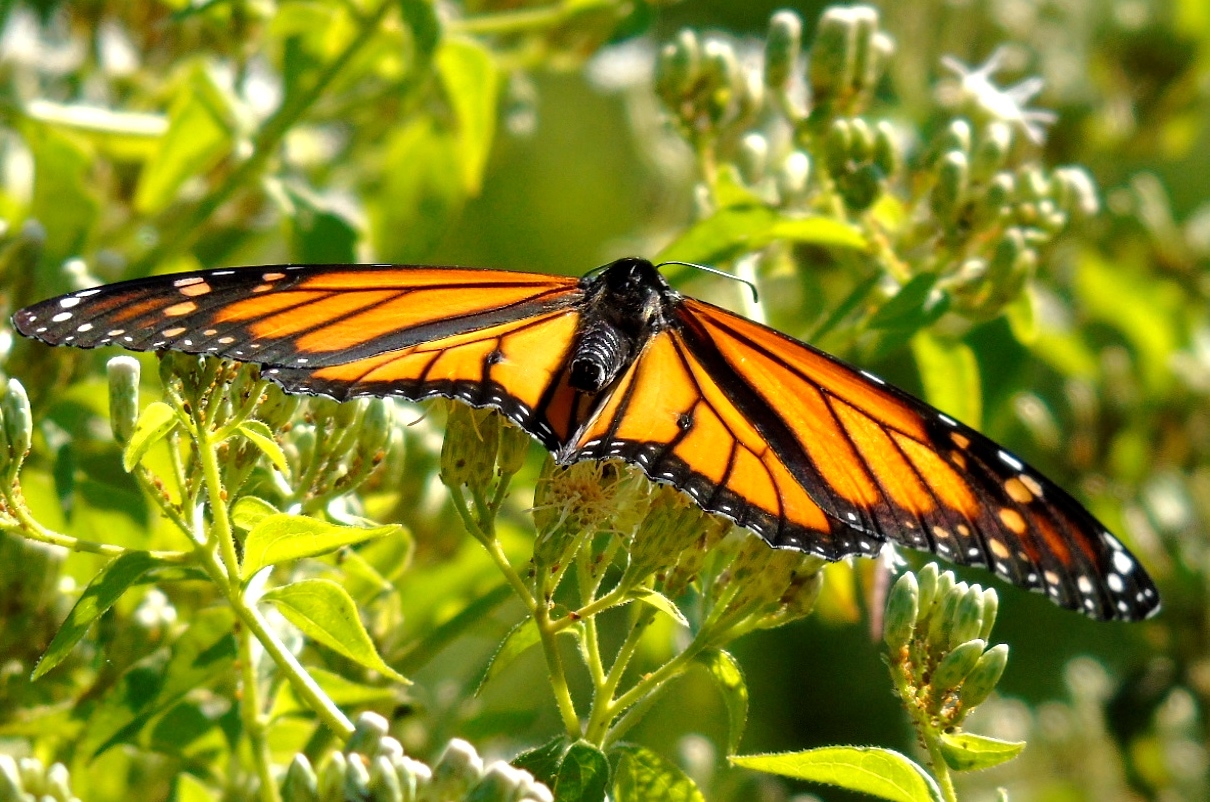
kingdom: Animalia
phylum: Arthropoda
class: Insecta
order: Lepidoptera
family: Nymphalidae
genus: Danaus
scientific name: Danaus plexippus
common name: Monarch
